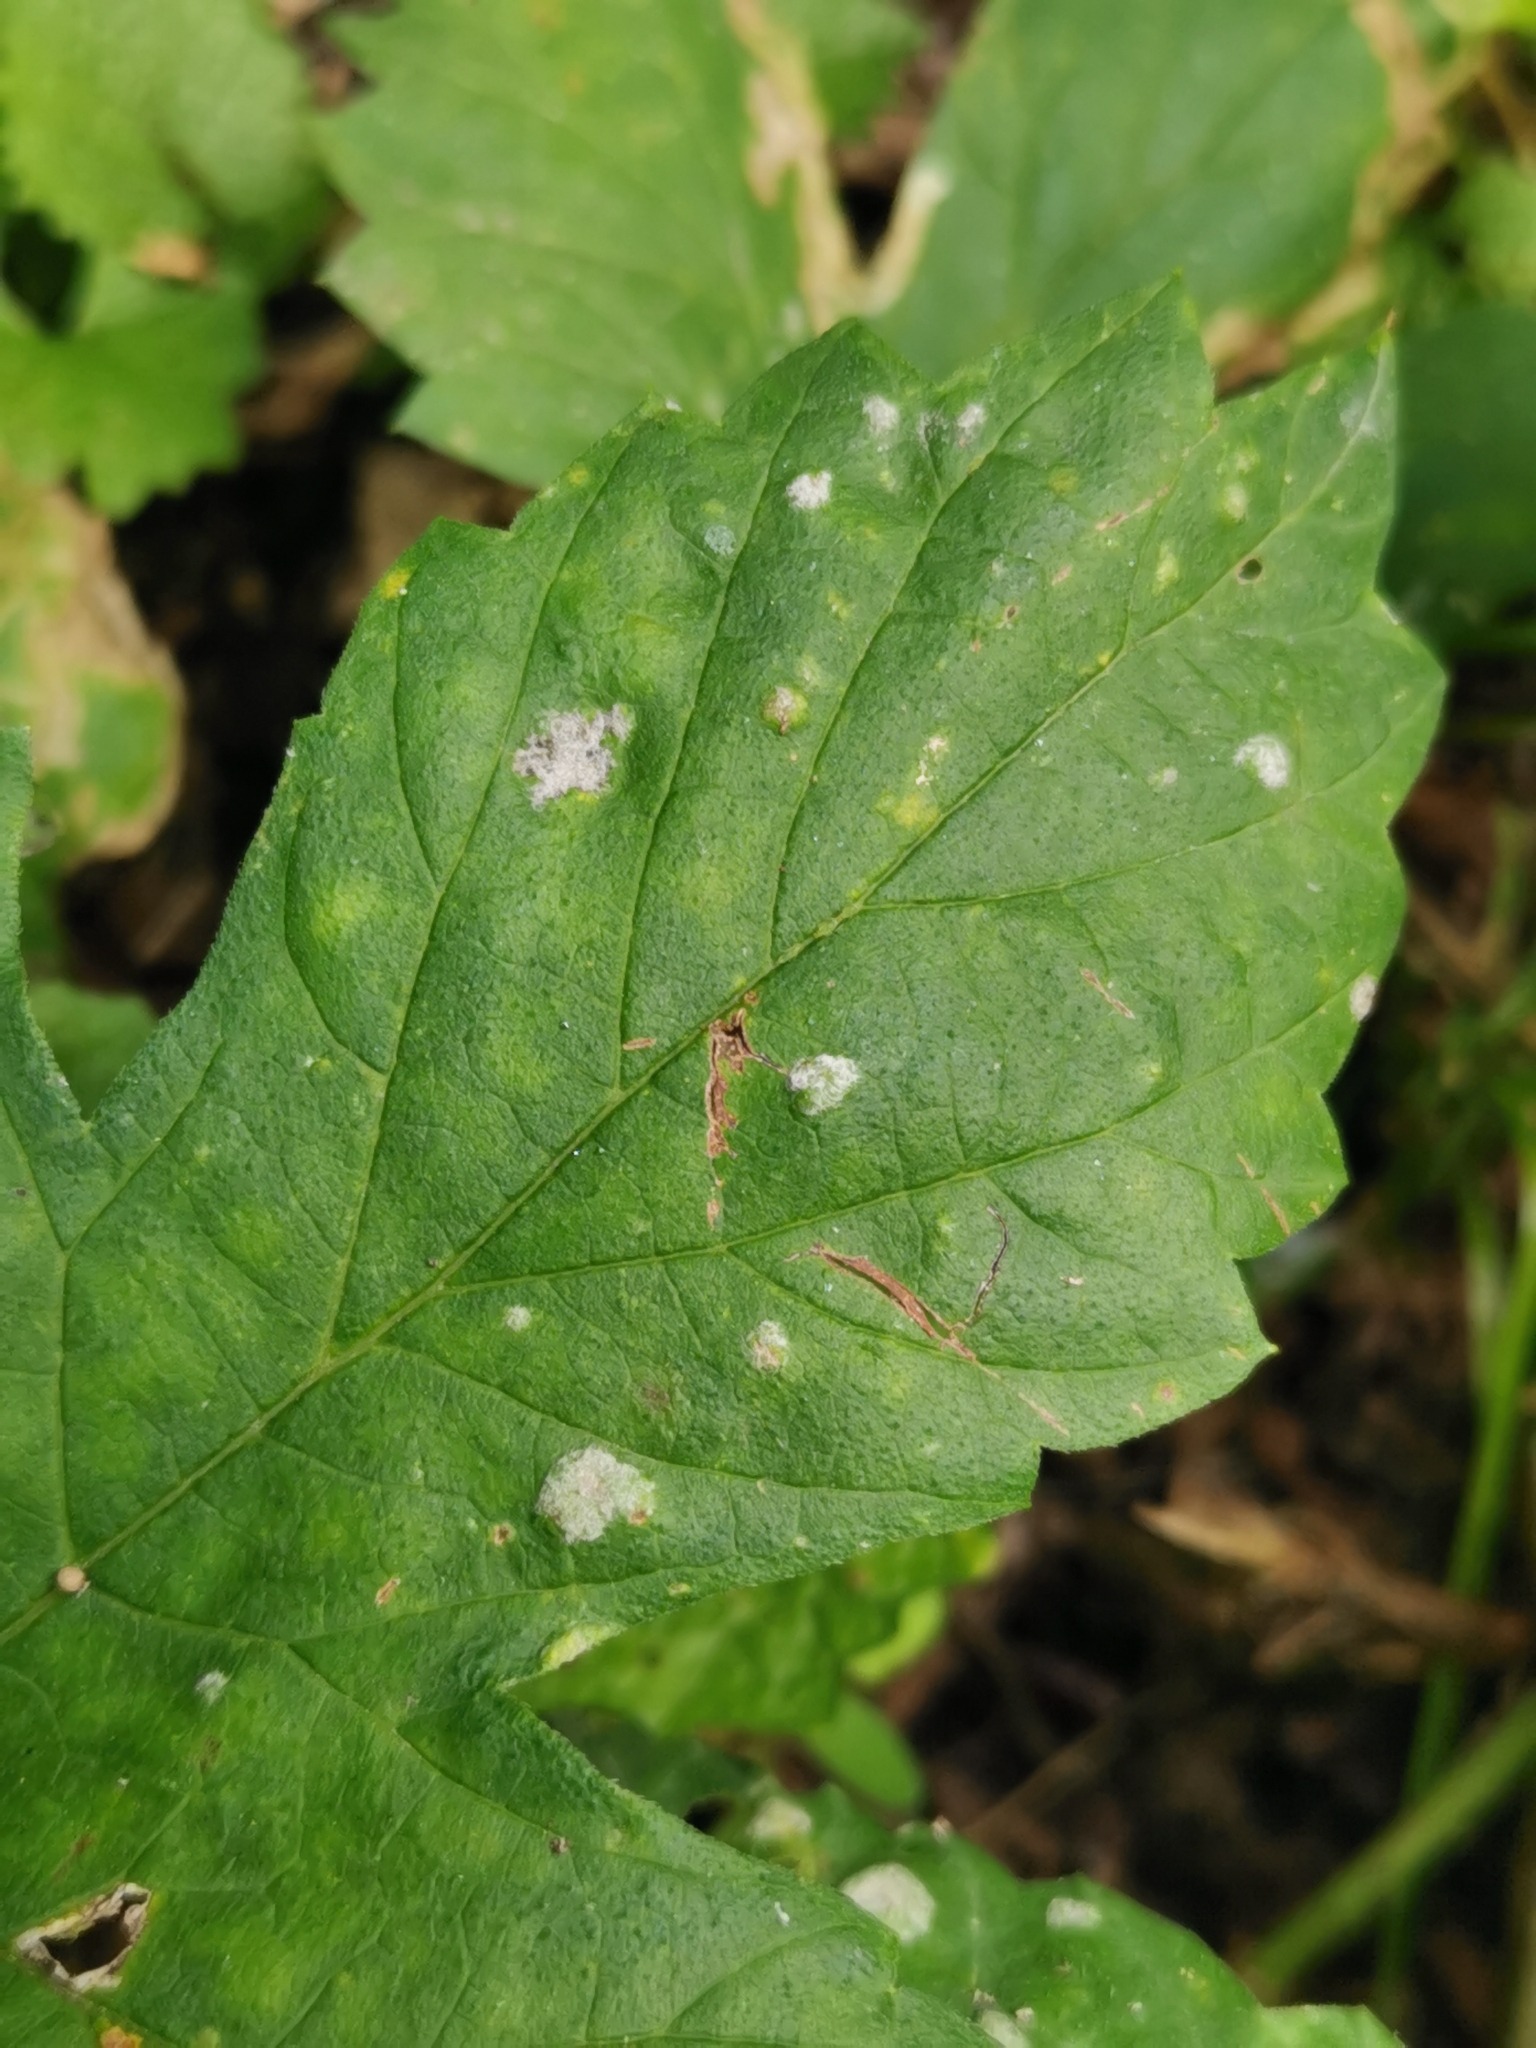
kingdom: Fungi
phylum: Ascomycota
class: Leotiomycetes
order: Helotiales
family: Erysiphaceae
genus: Podosphaera
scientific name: Podosphaera macularis
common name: Powdery mildew
